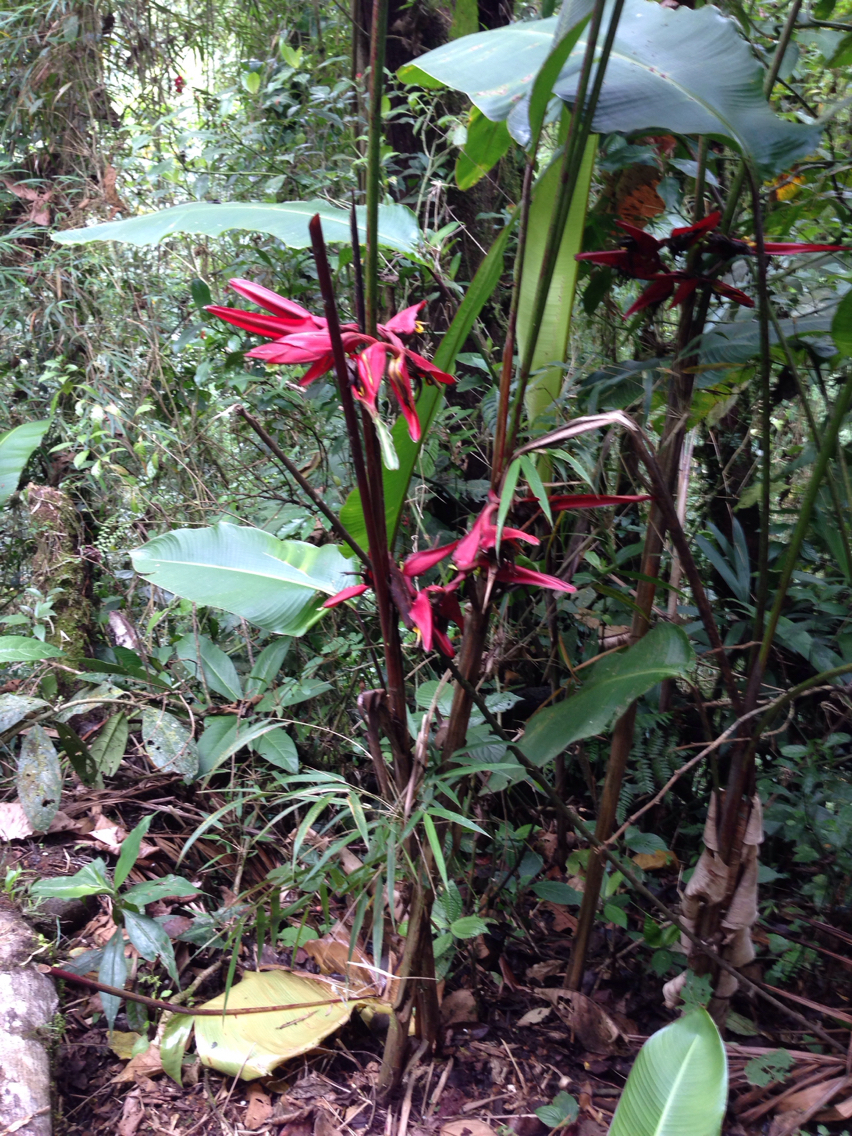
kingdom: Plantae
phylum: Tracheophyta
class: Liliopsida
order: Zingiberales
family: Heliconiaceae
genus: Heliconia
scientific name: Heliconia secunda
